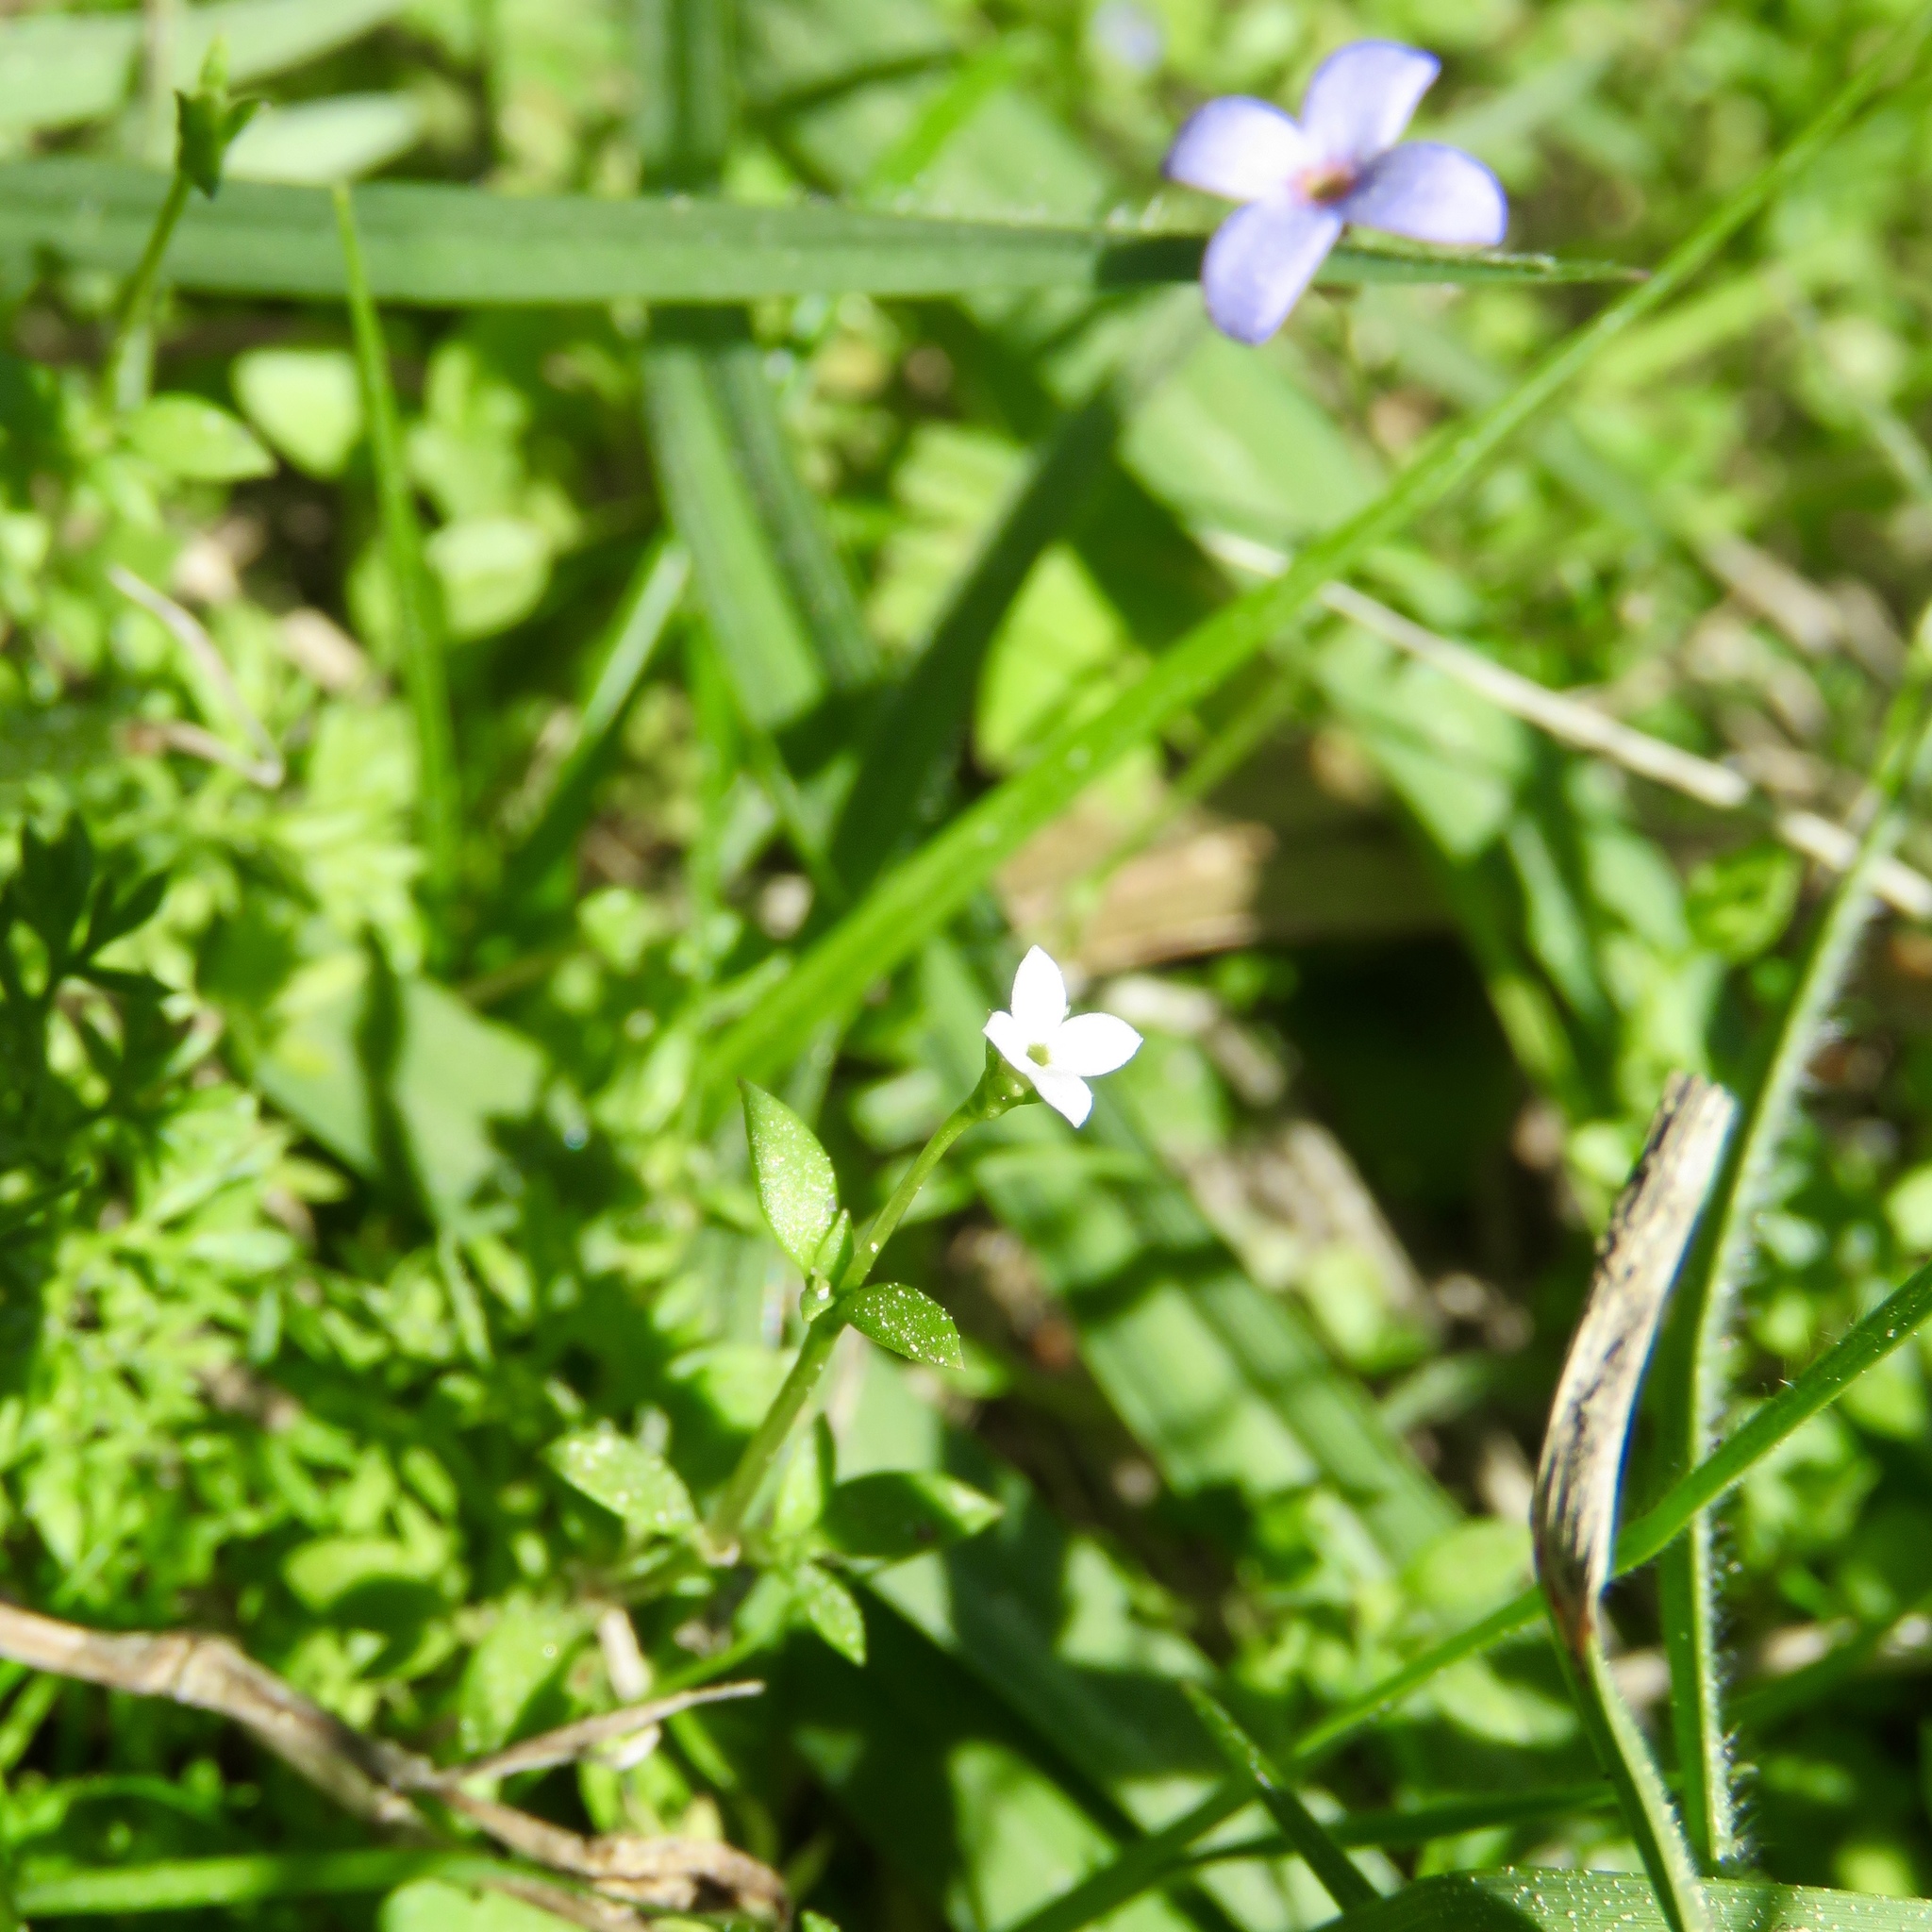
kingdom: Plantae
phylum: Tracheophyta
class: Magnoliopsida
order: Gentianales
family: Rubiaceae
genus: Houstonia
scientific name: Houstonia micrantha
